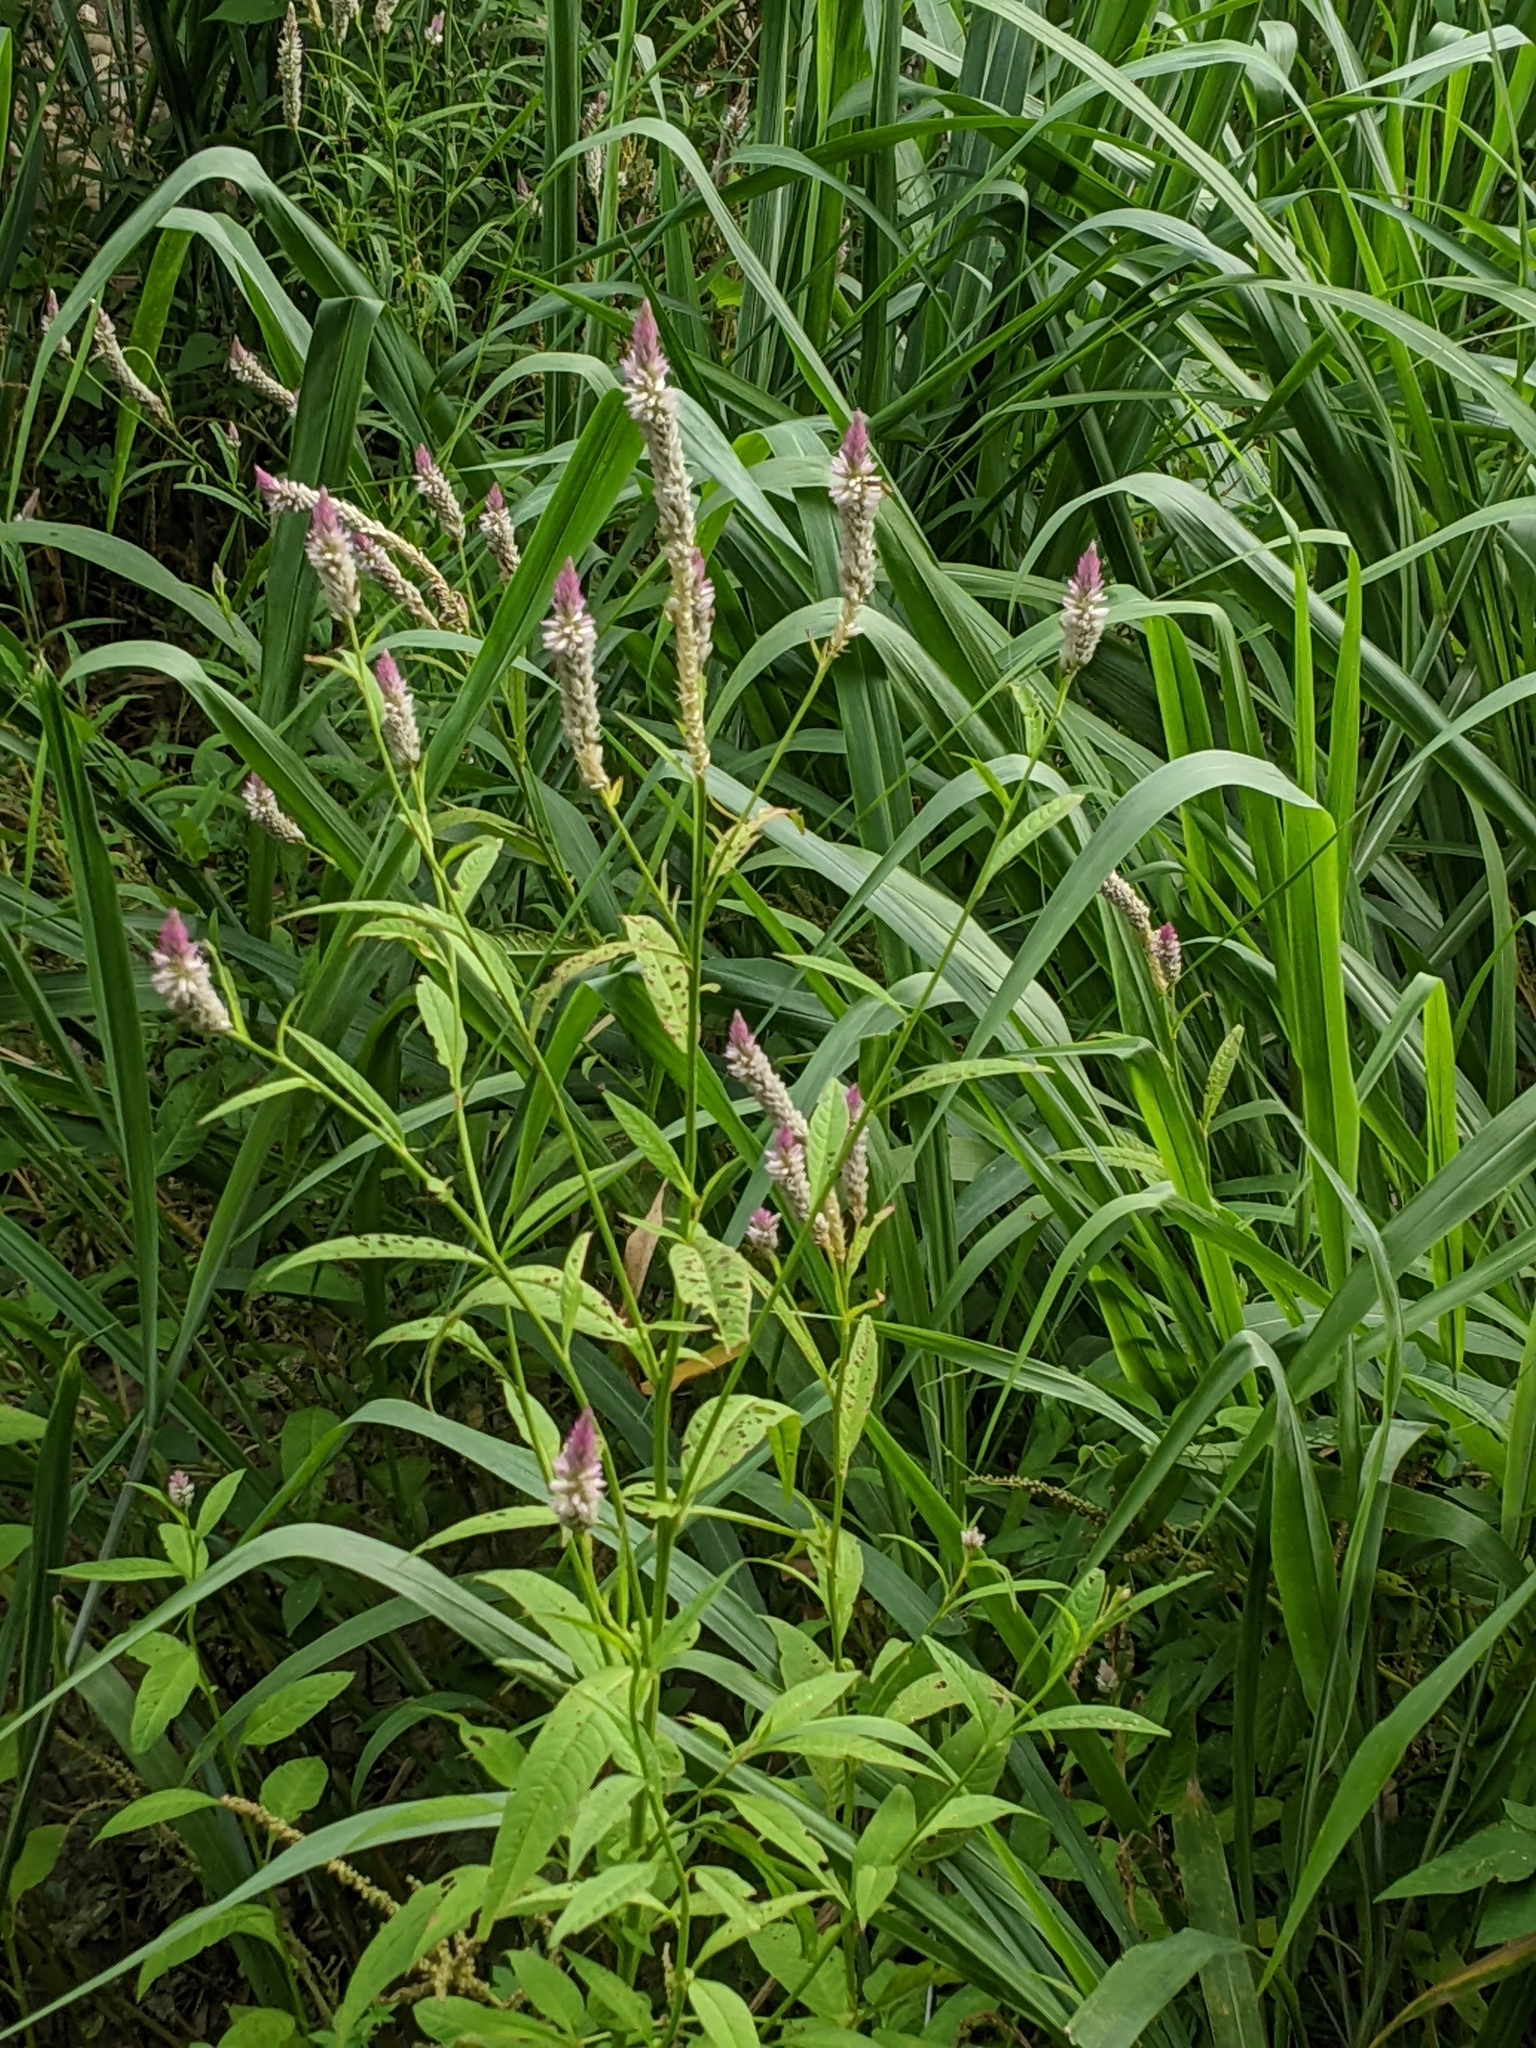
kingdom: Plantae
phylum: Tracheophyta
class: Magnoliopsida
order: Caryophyllales
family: Amaranthaceae
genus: Celosia
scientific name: Celosia argentea
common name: Feather cockscomb
